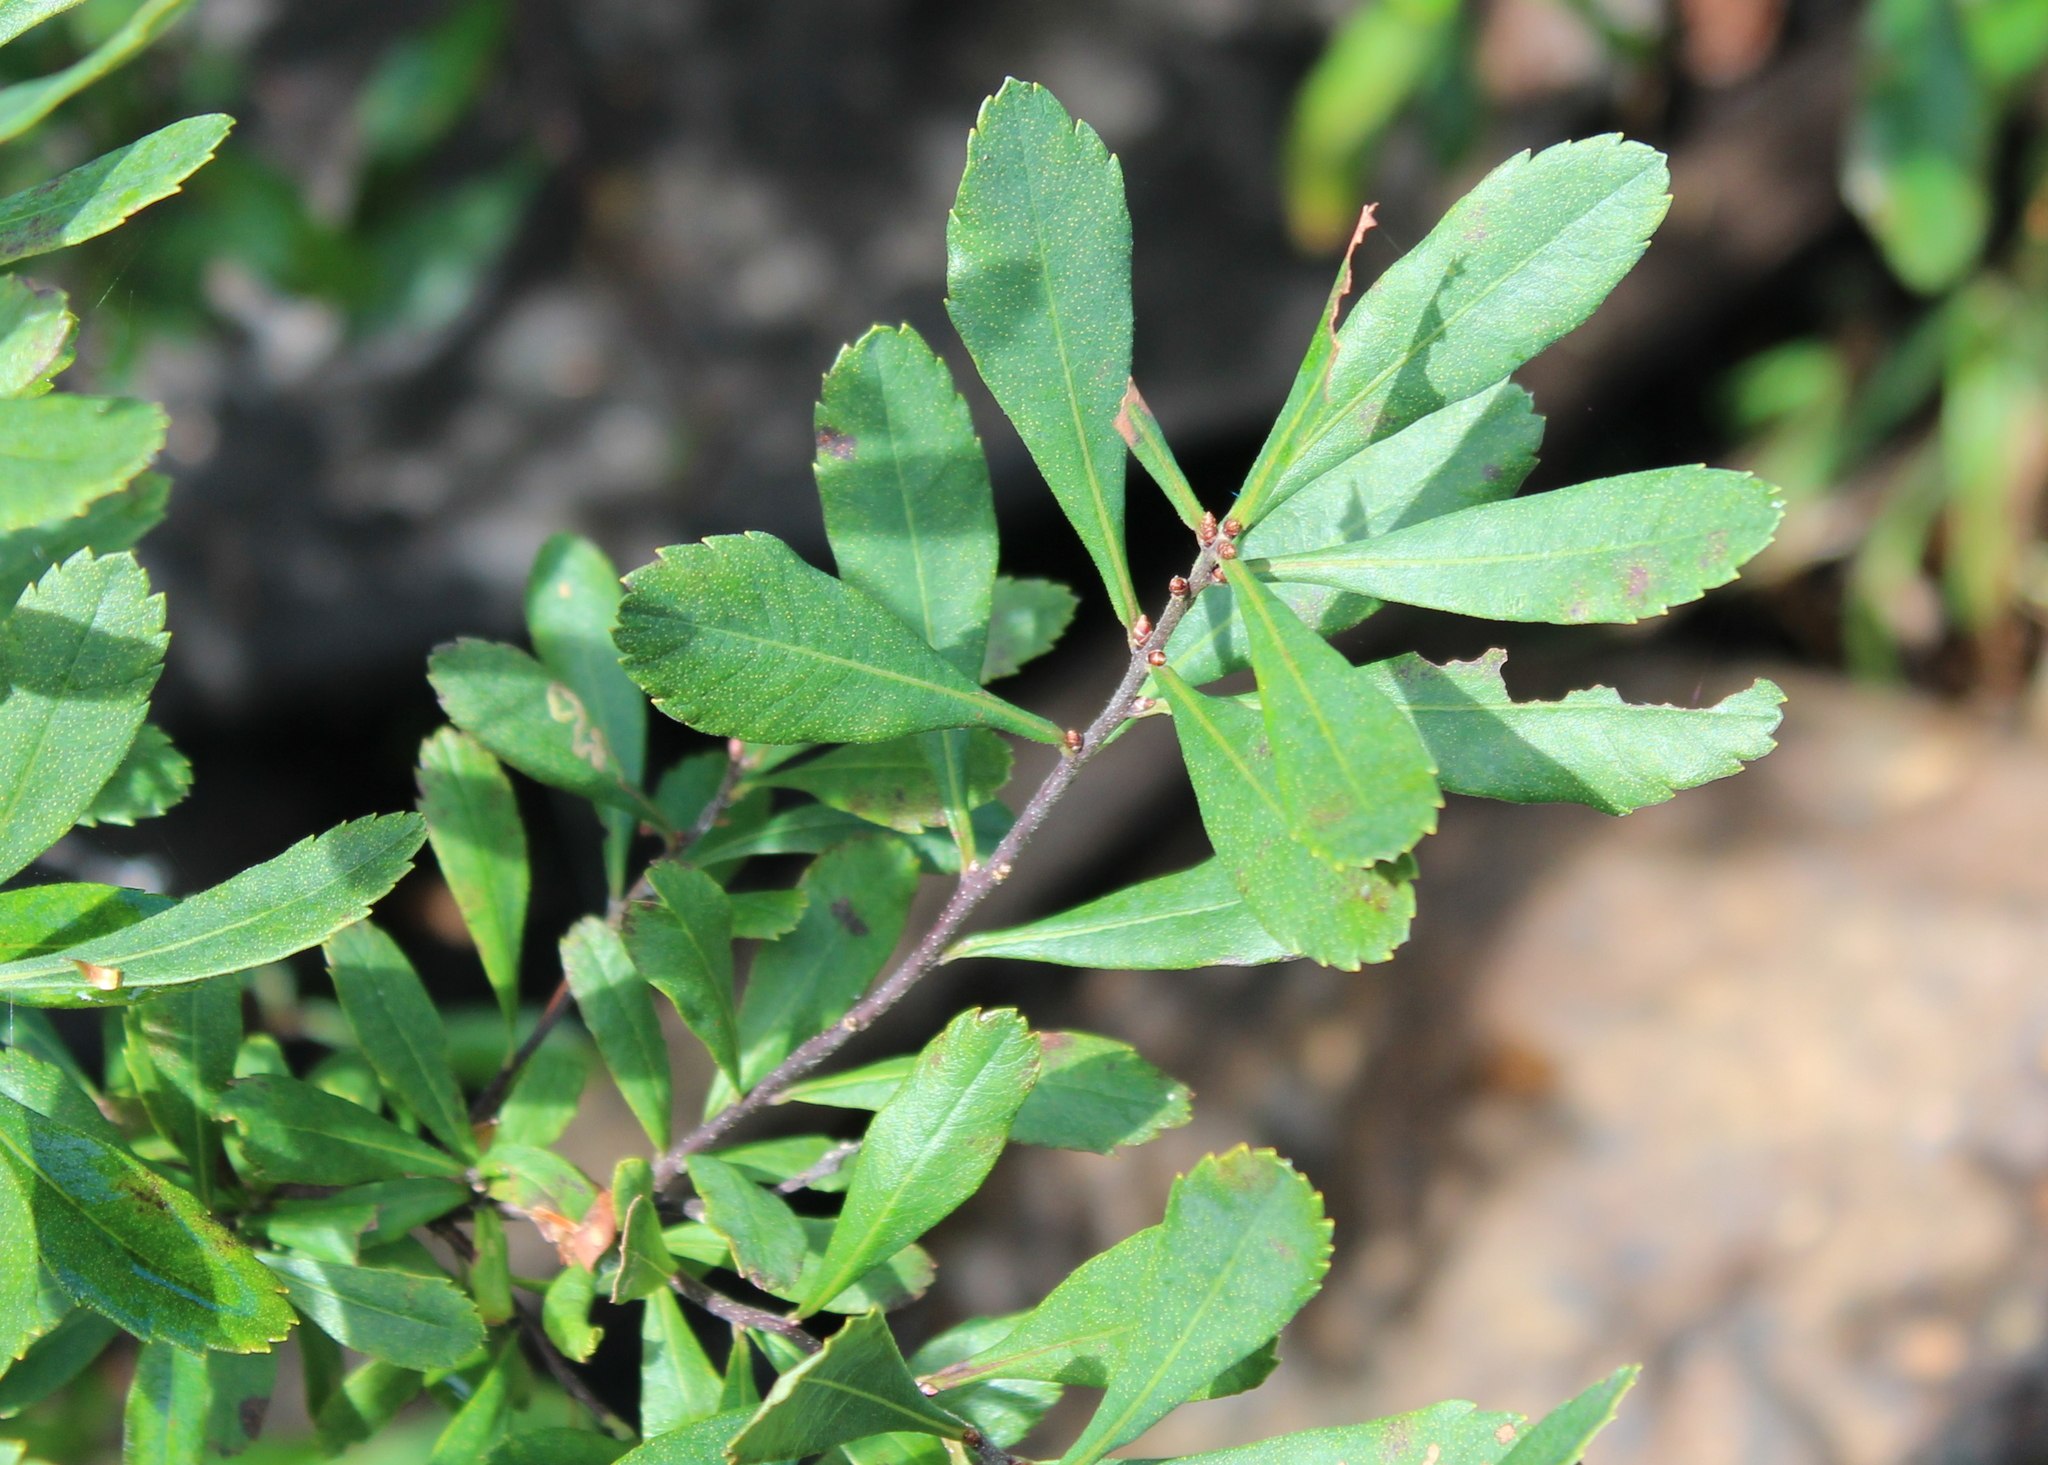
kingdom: Plantae
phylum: Tracheophyta
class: Magnoliopsida
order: Fagales
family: Myricaceae
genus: Myrica
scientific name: Myrica gale
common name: Sweet gale
